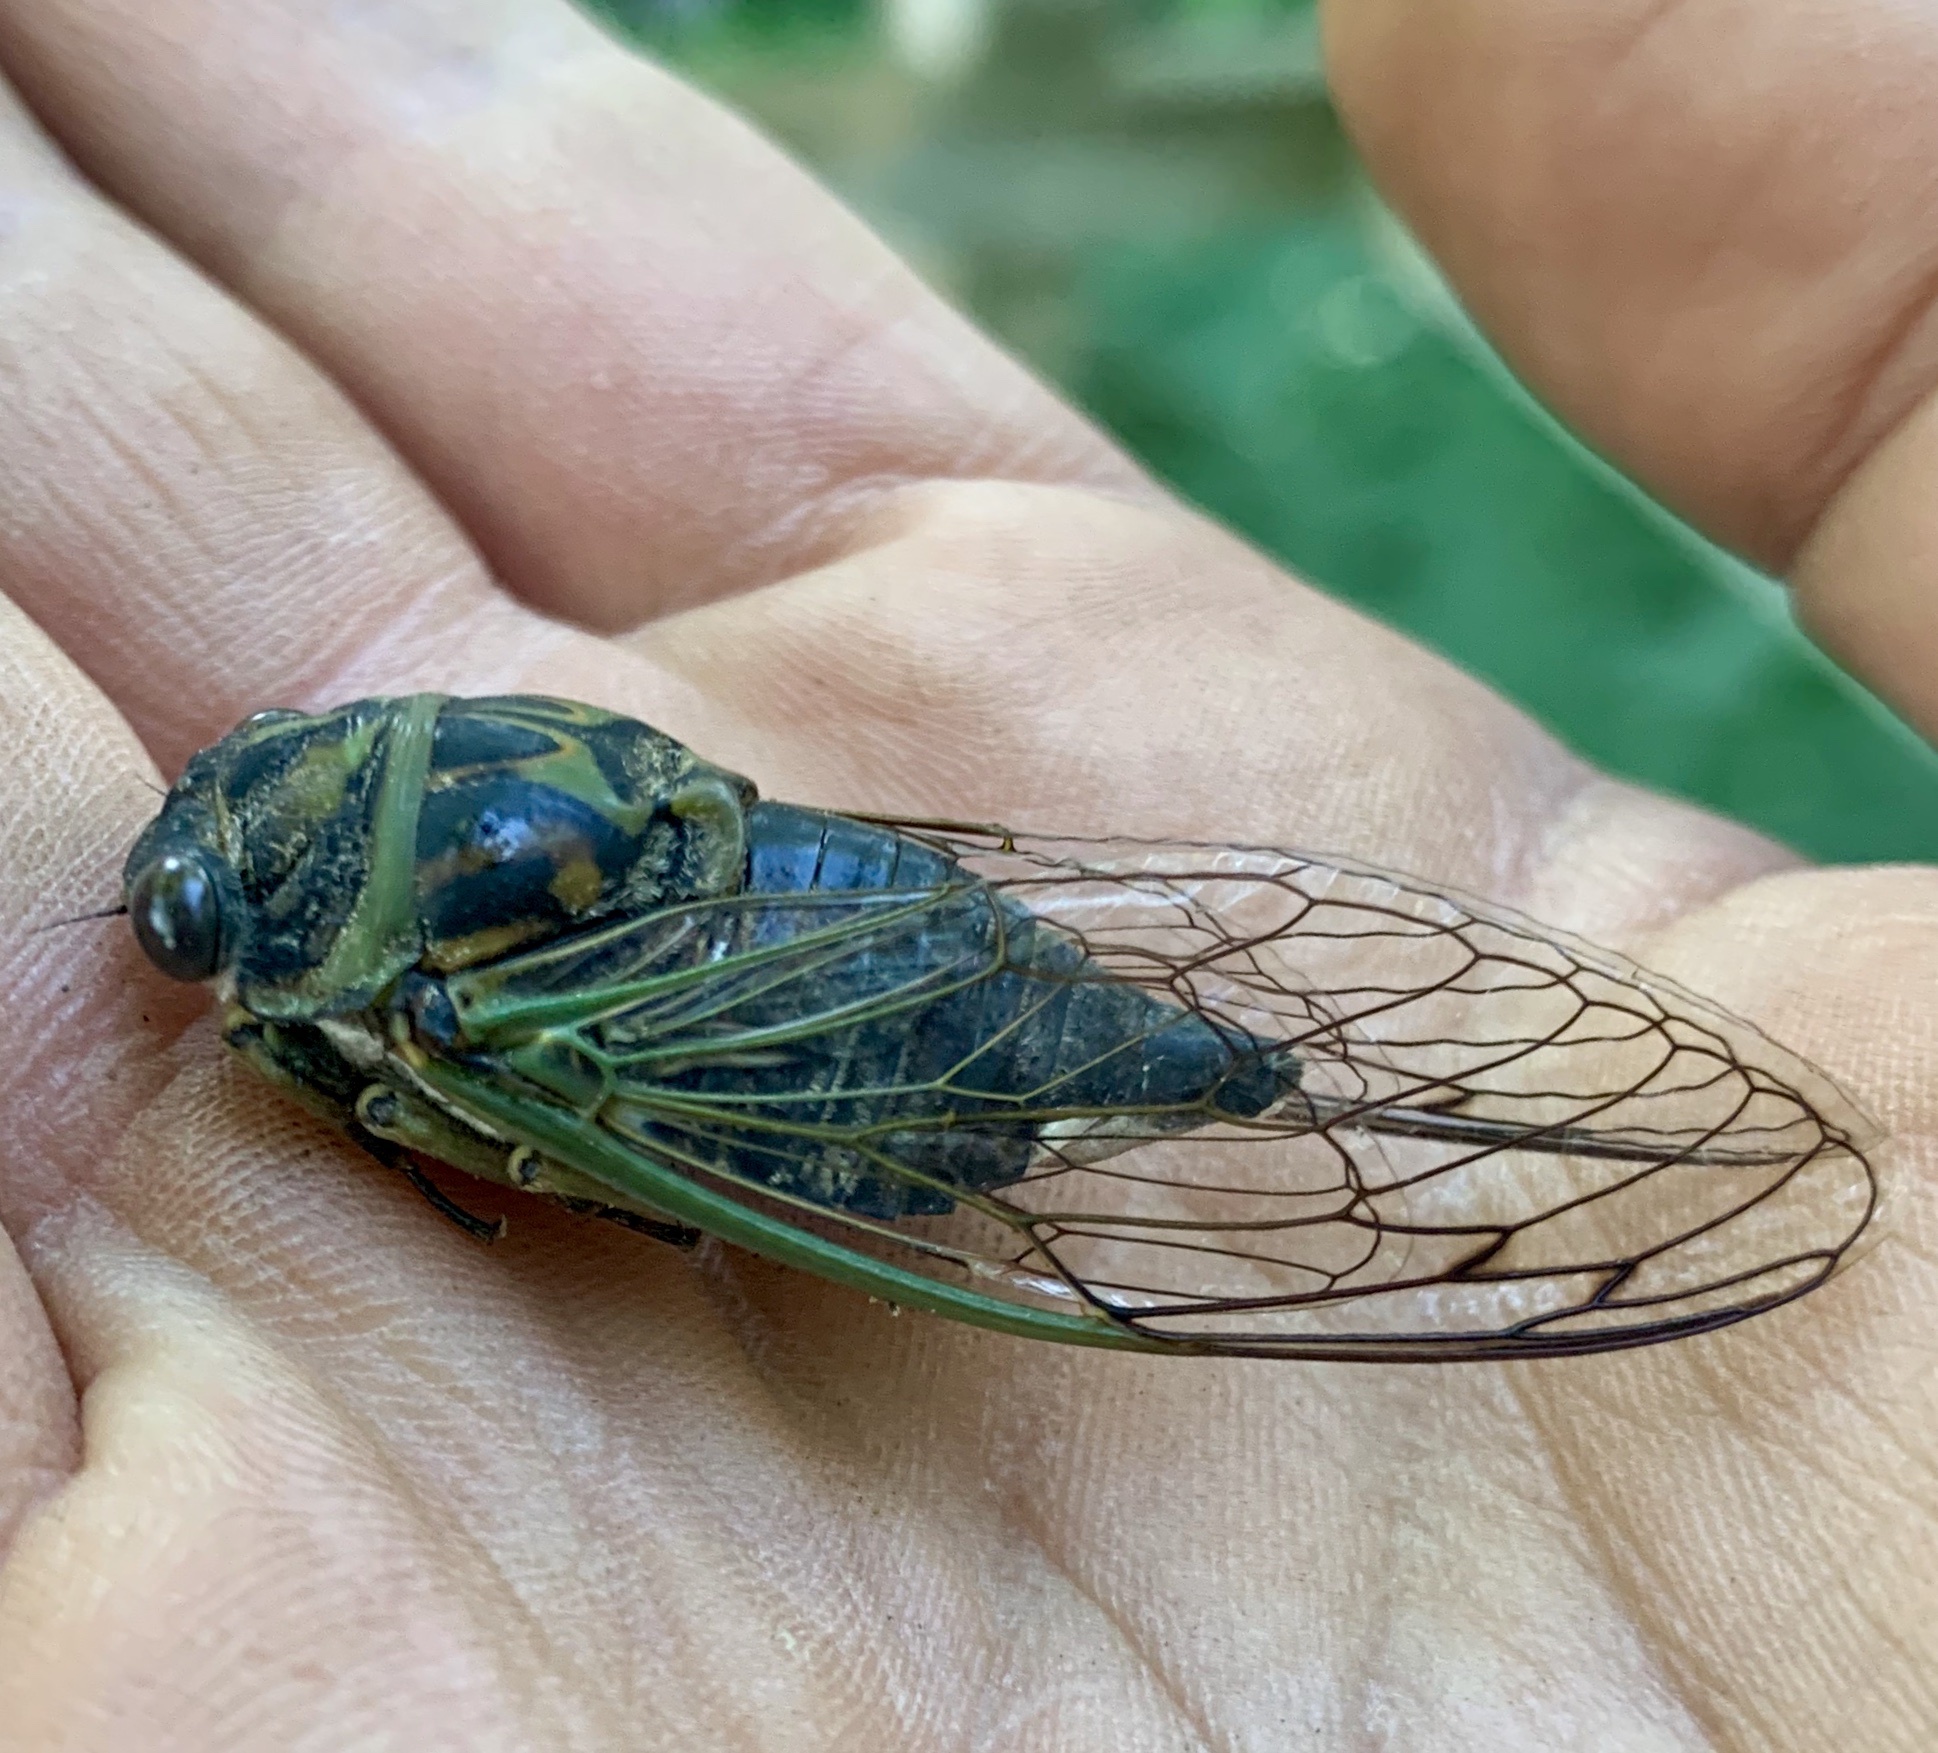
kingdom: Animalia
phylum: Arthropoda
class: Insecta
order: Hemiptera
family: Cicadidae
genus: Neotibicen
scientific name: Neotibicen canicularis
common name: God-day cicada
